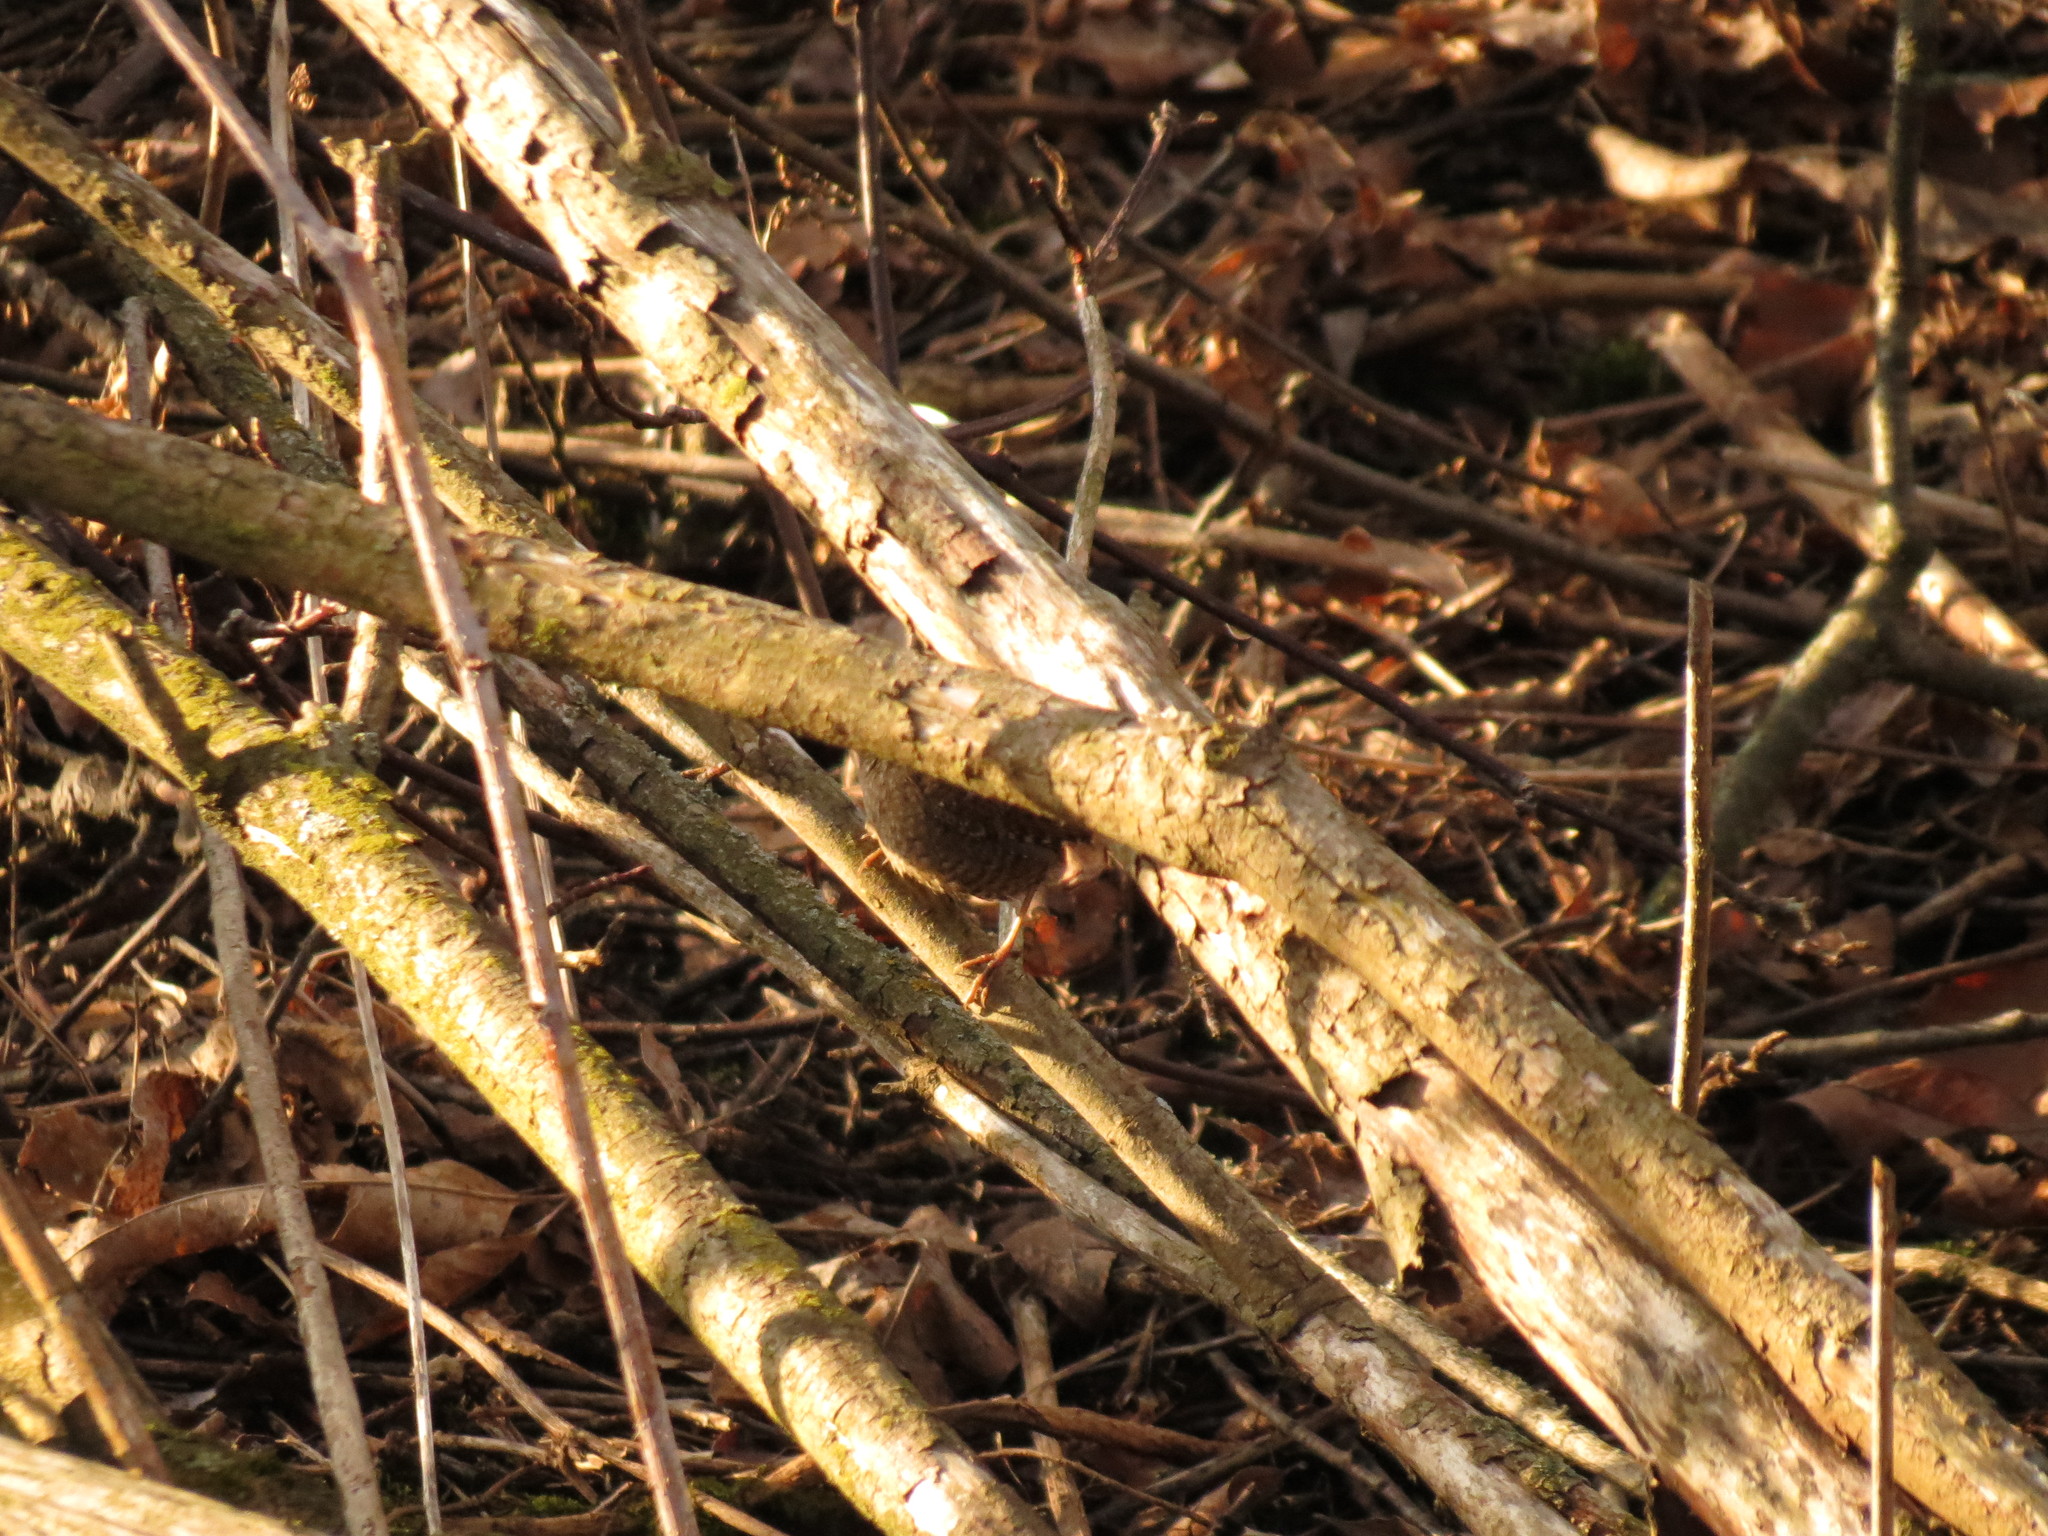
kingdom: Animalia
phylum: Chordata
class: Aves
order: Passeriformes
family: Troglodytidae
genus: Troglodytes
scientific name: Troglodytes hiemalis
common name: Winter wren
